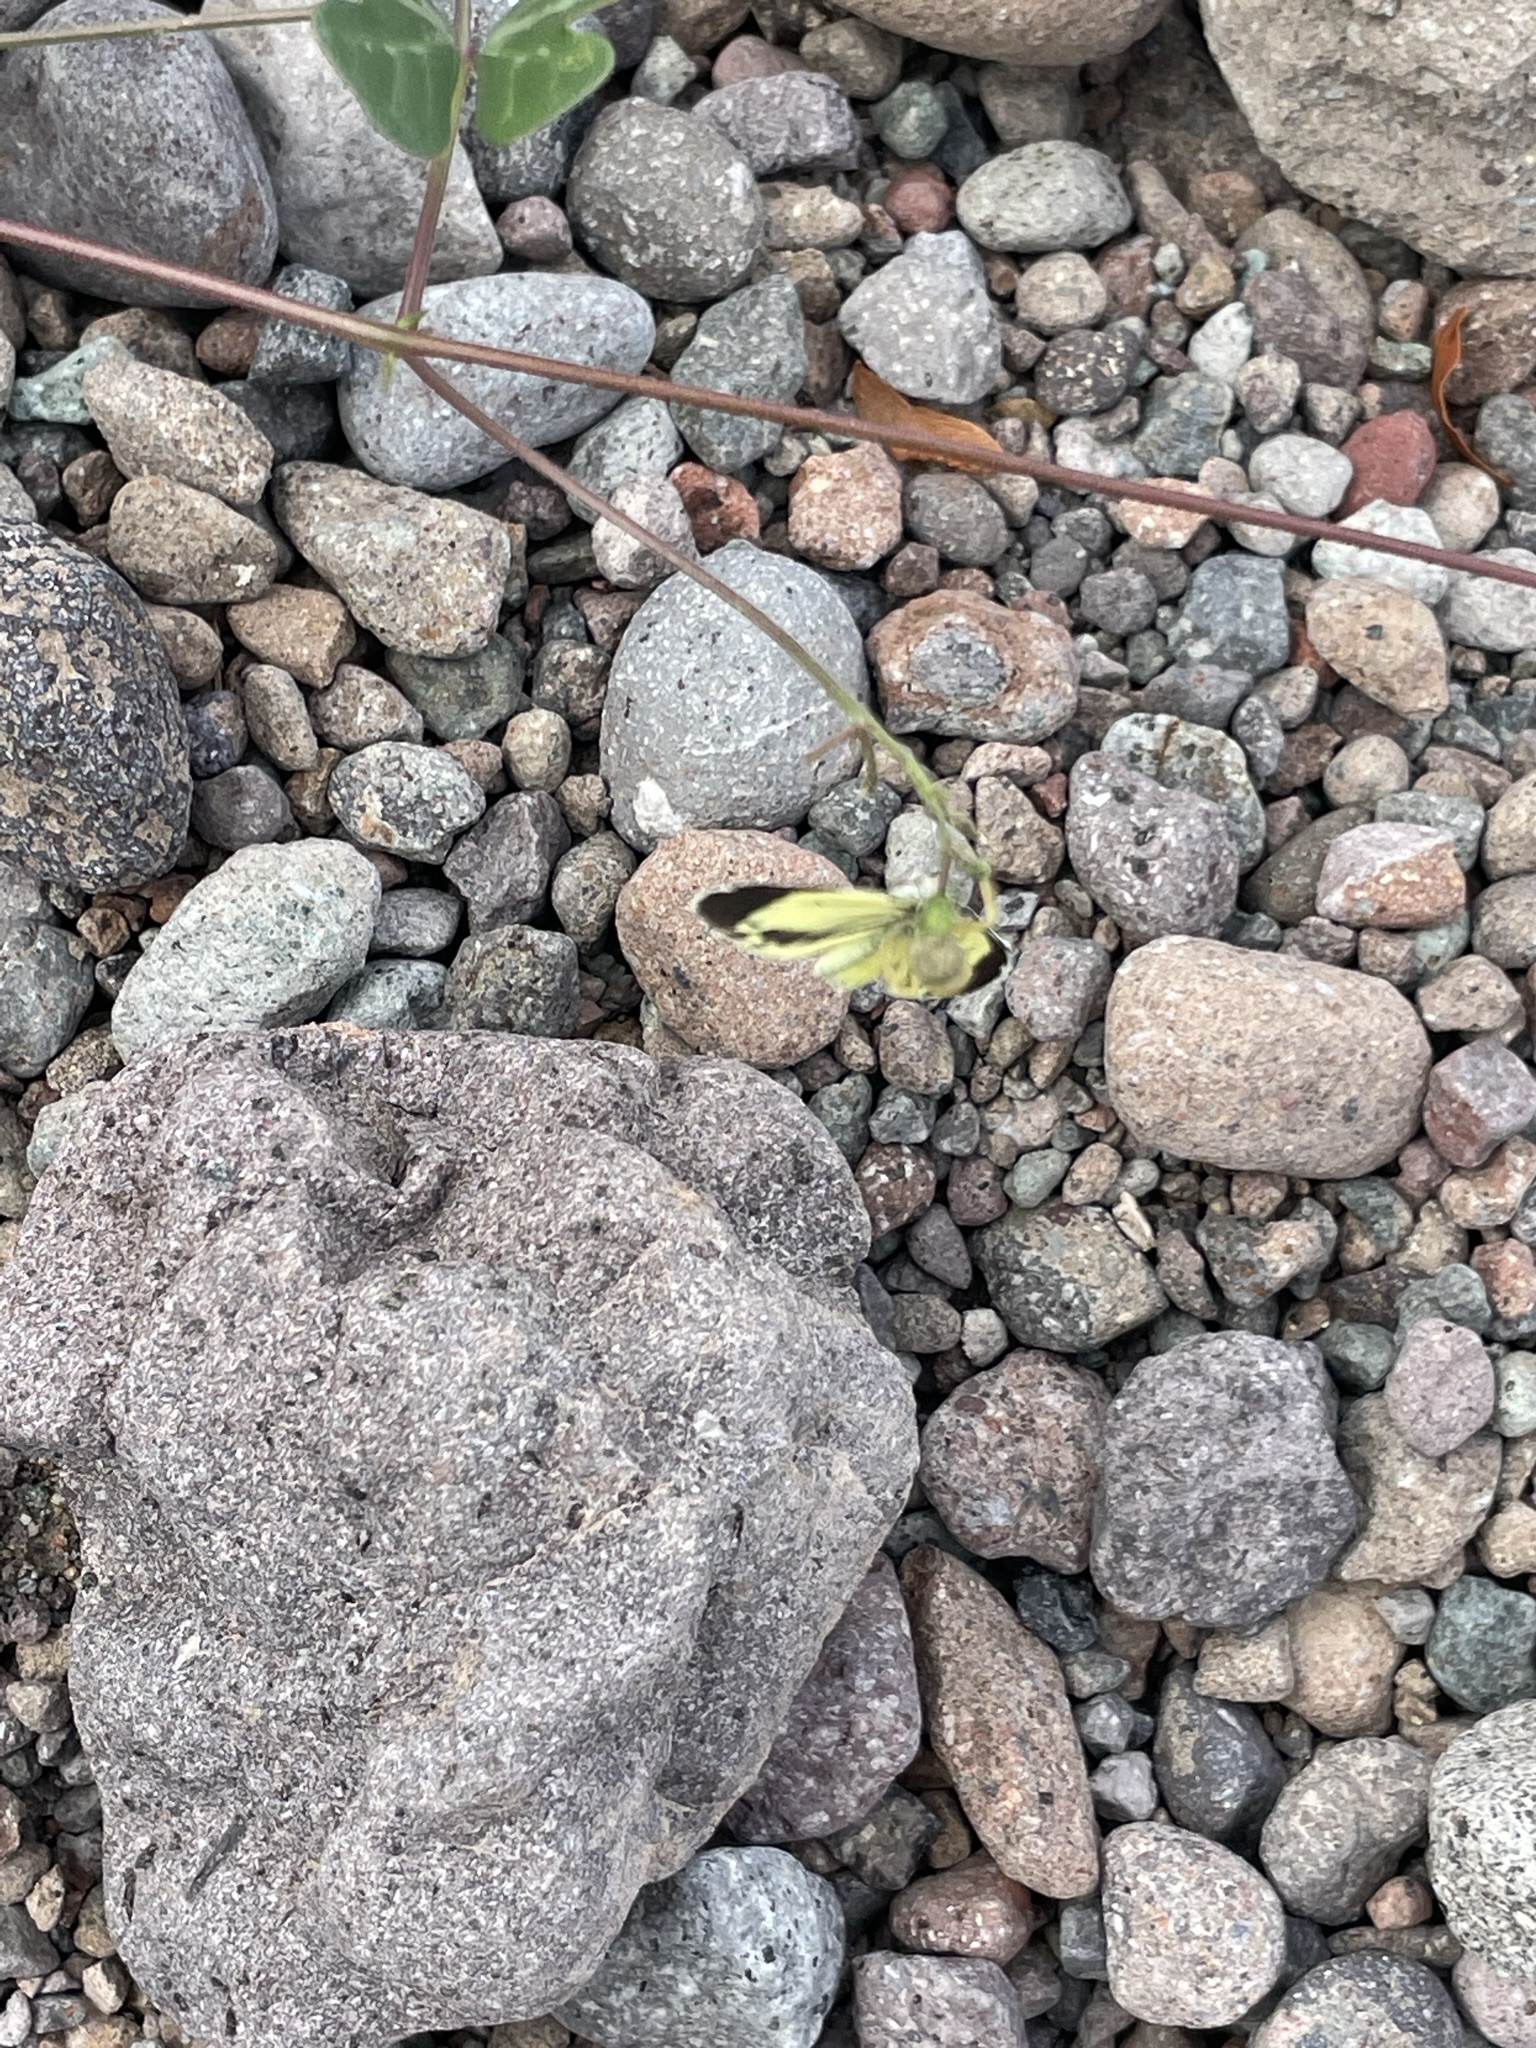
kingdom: Animalia
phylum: Arthropoda
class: Insecta
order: Lepidoptera
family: Pieridae
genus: Nathalis
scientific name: Nathalis iole
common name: Dainty sulphur
